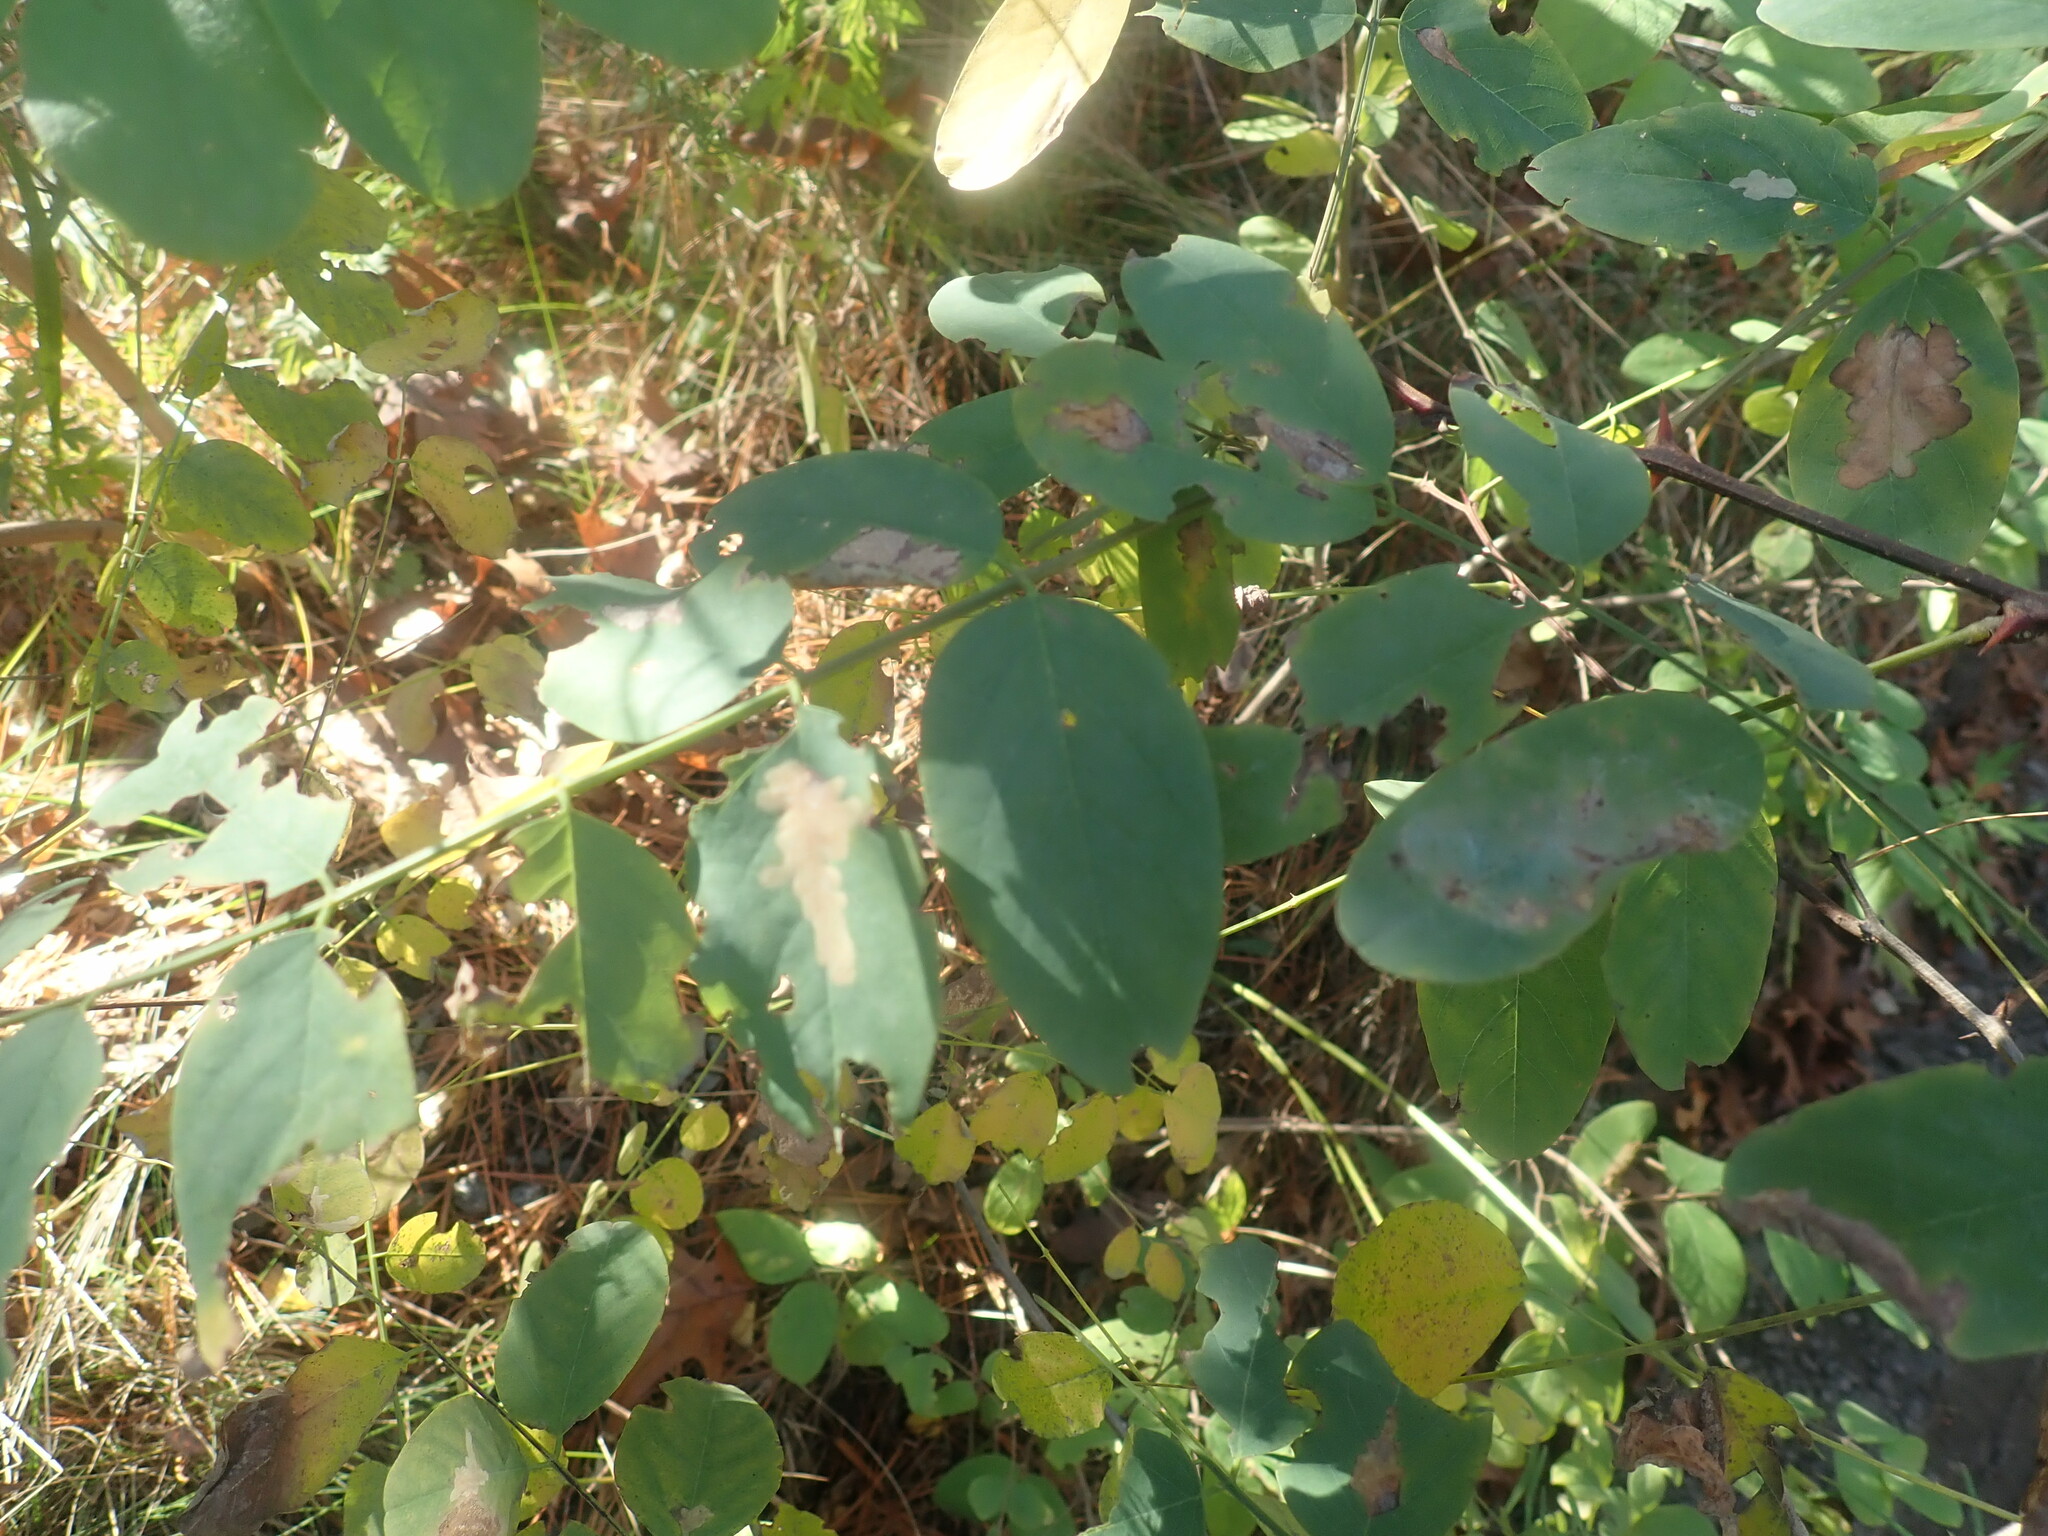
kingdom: Plantae
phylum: Tracheophyta
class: Magnoliopsida
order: Fabales
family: Fabaceae
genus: Robinia
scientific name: Robinia pseudoacacia
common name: Black locust
